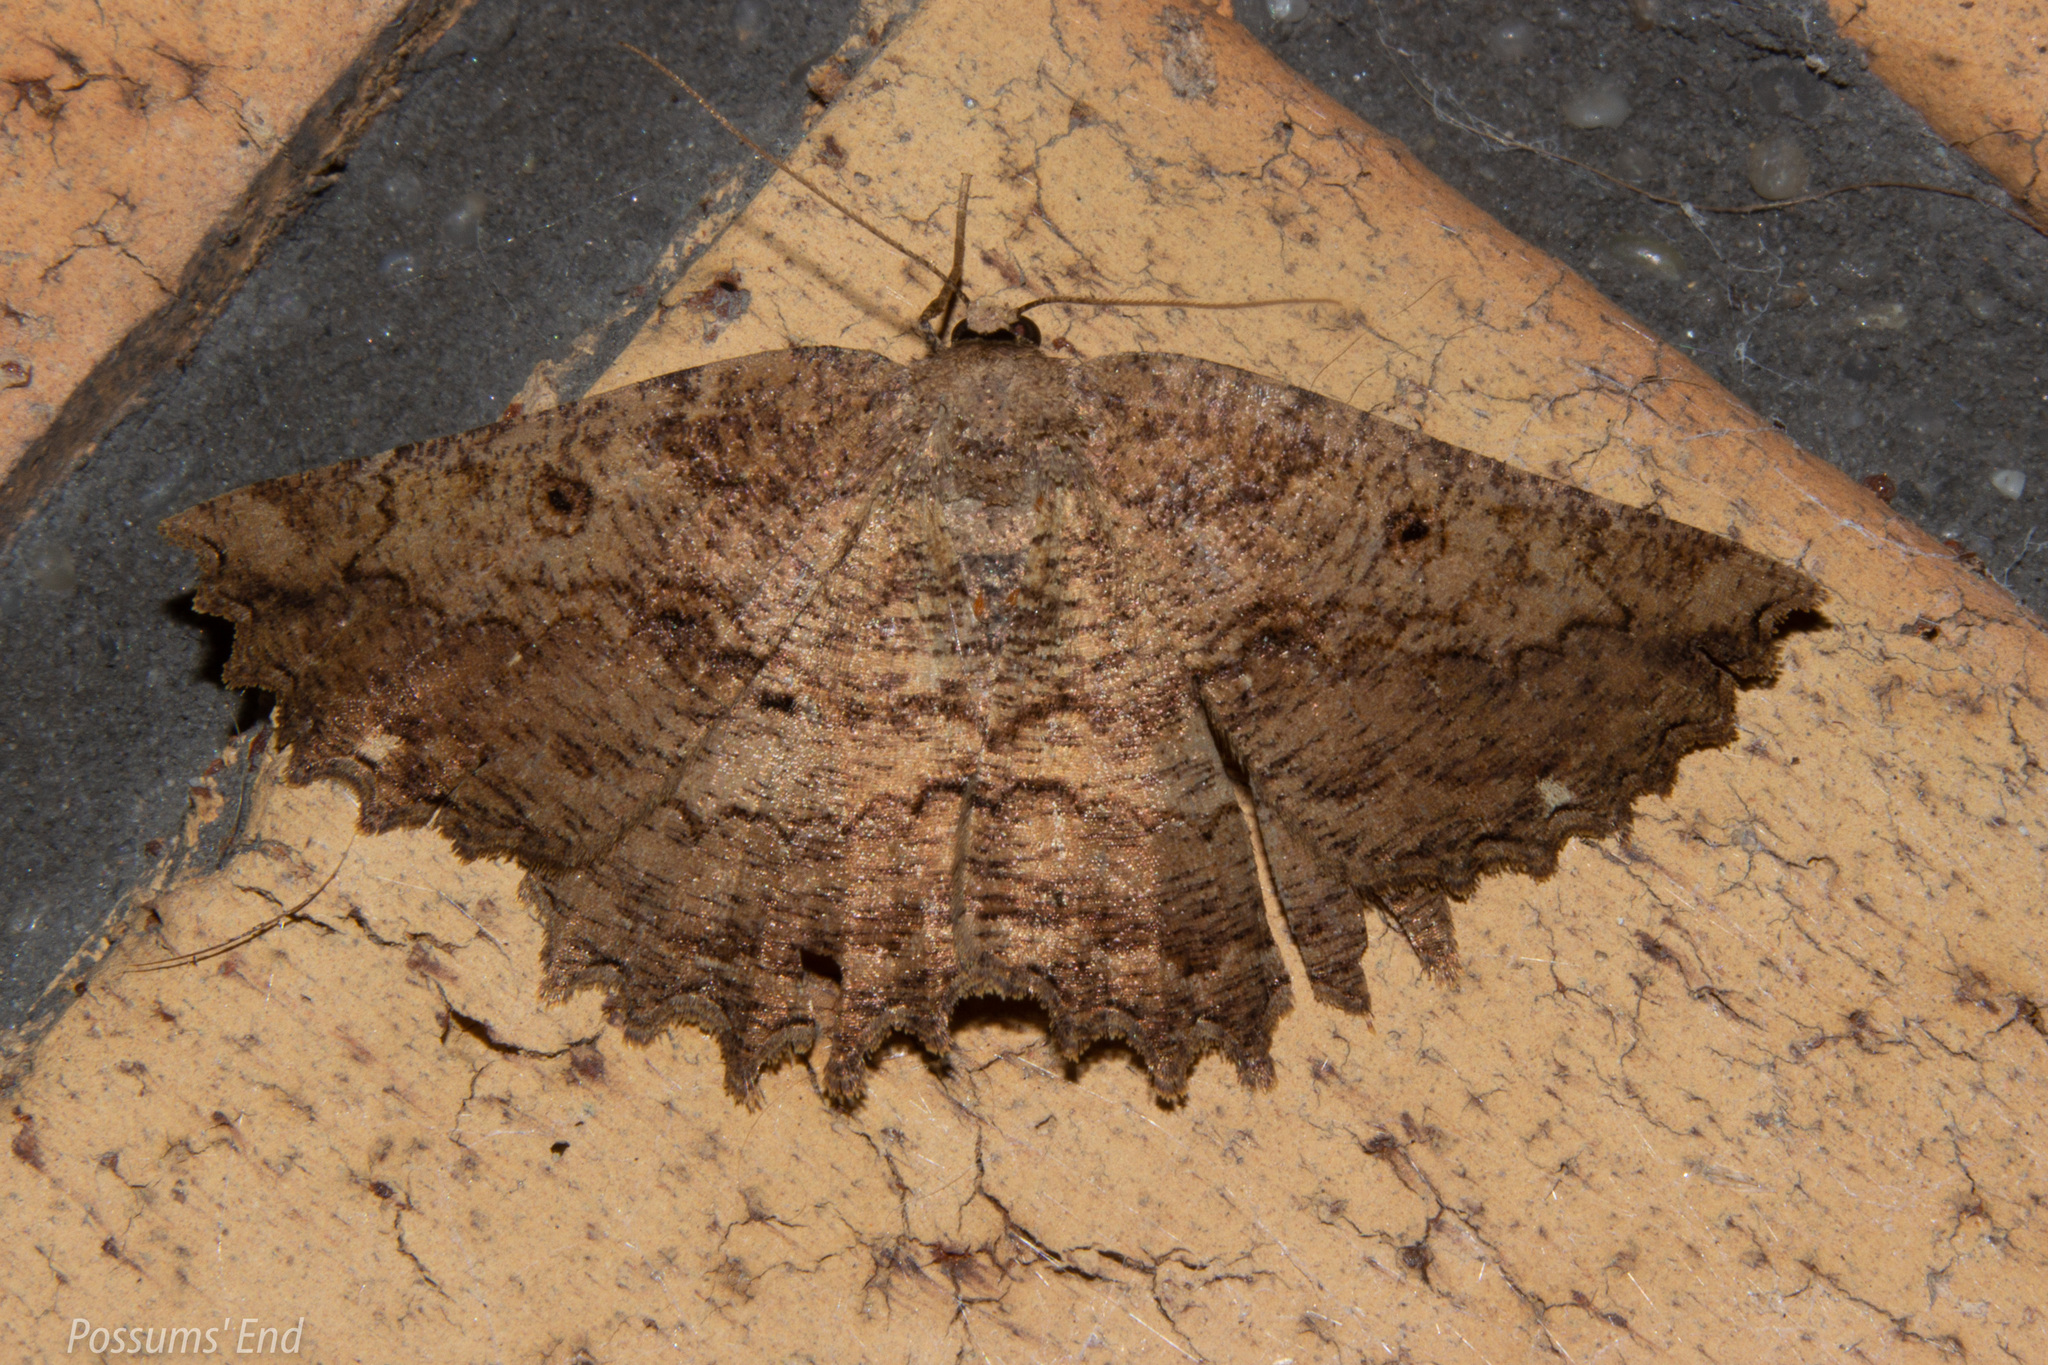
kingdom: Animalia
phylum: Arthropoda
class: Insecta
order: Lepidoptera
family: Geometridae
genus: Gellonia
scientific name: Gellonia pannularia
